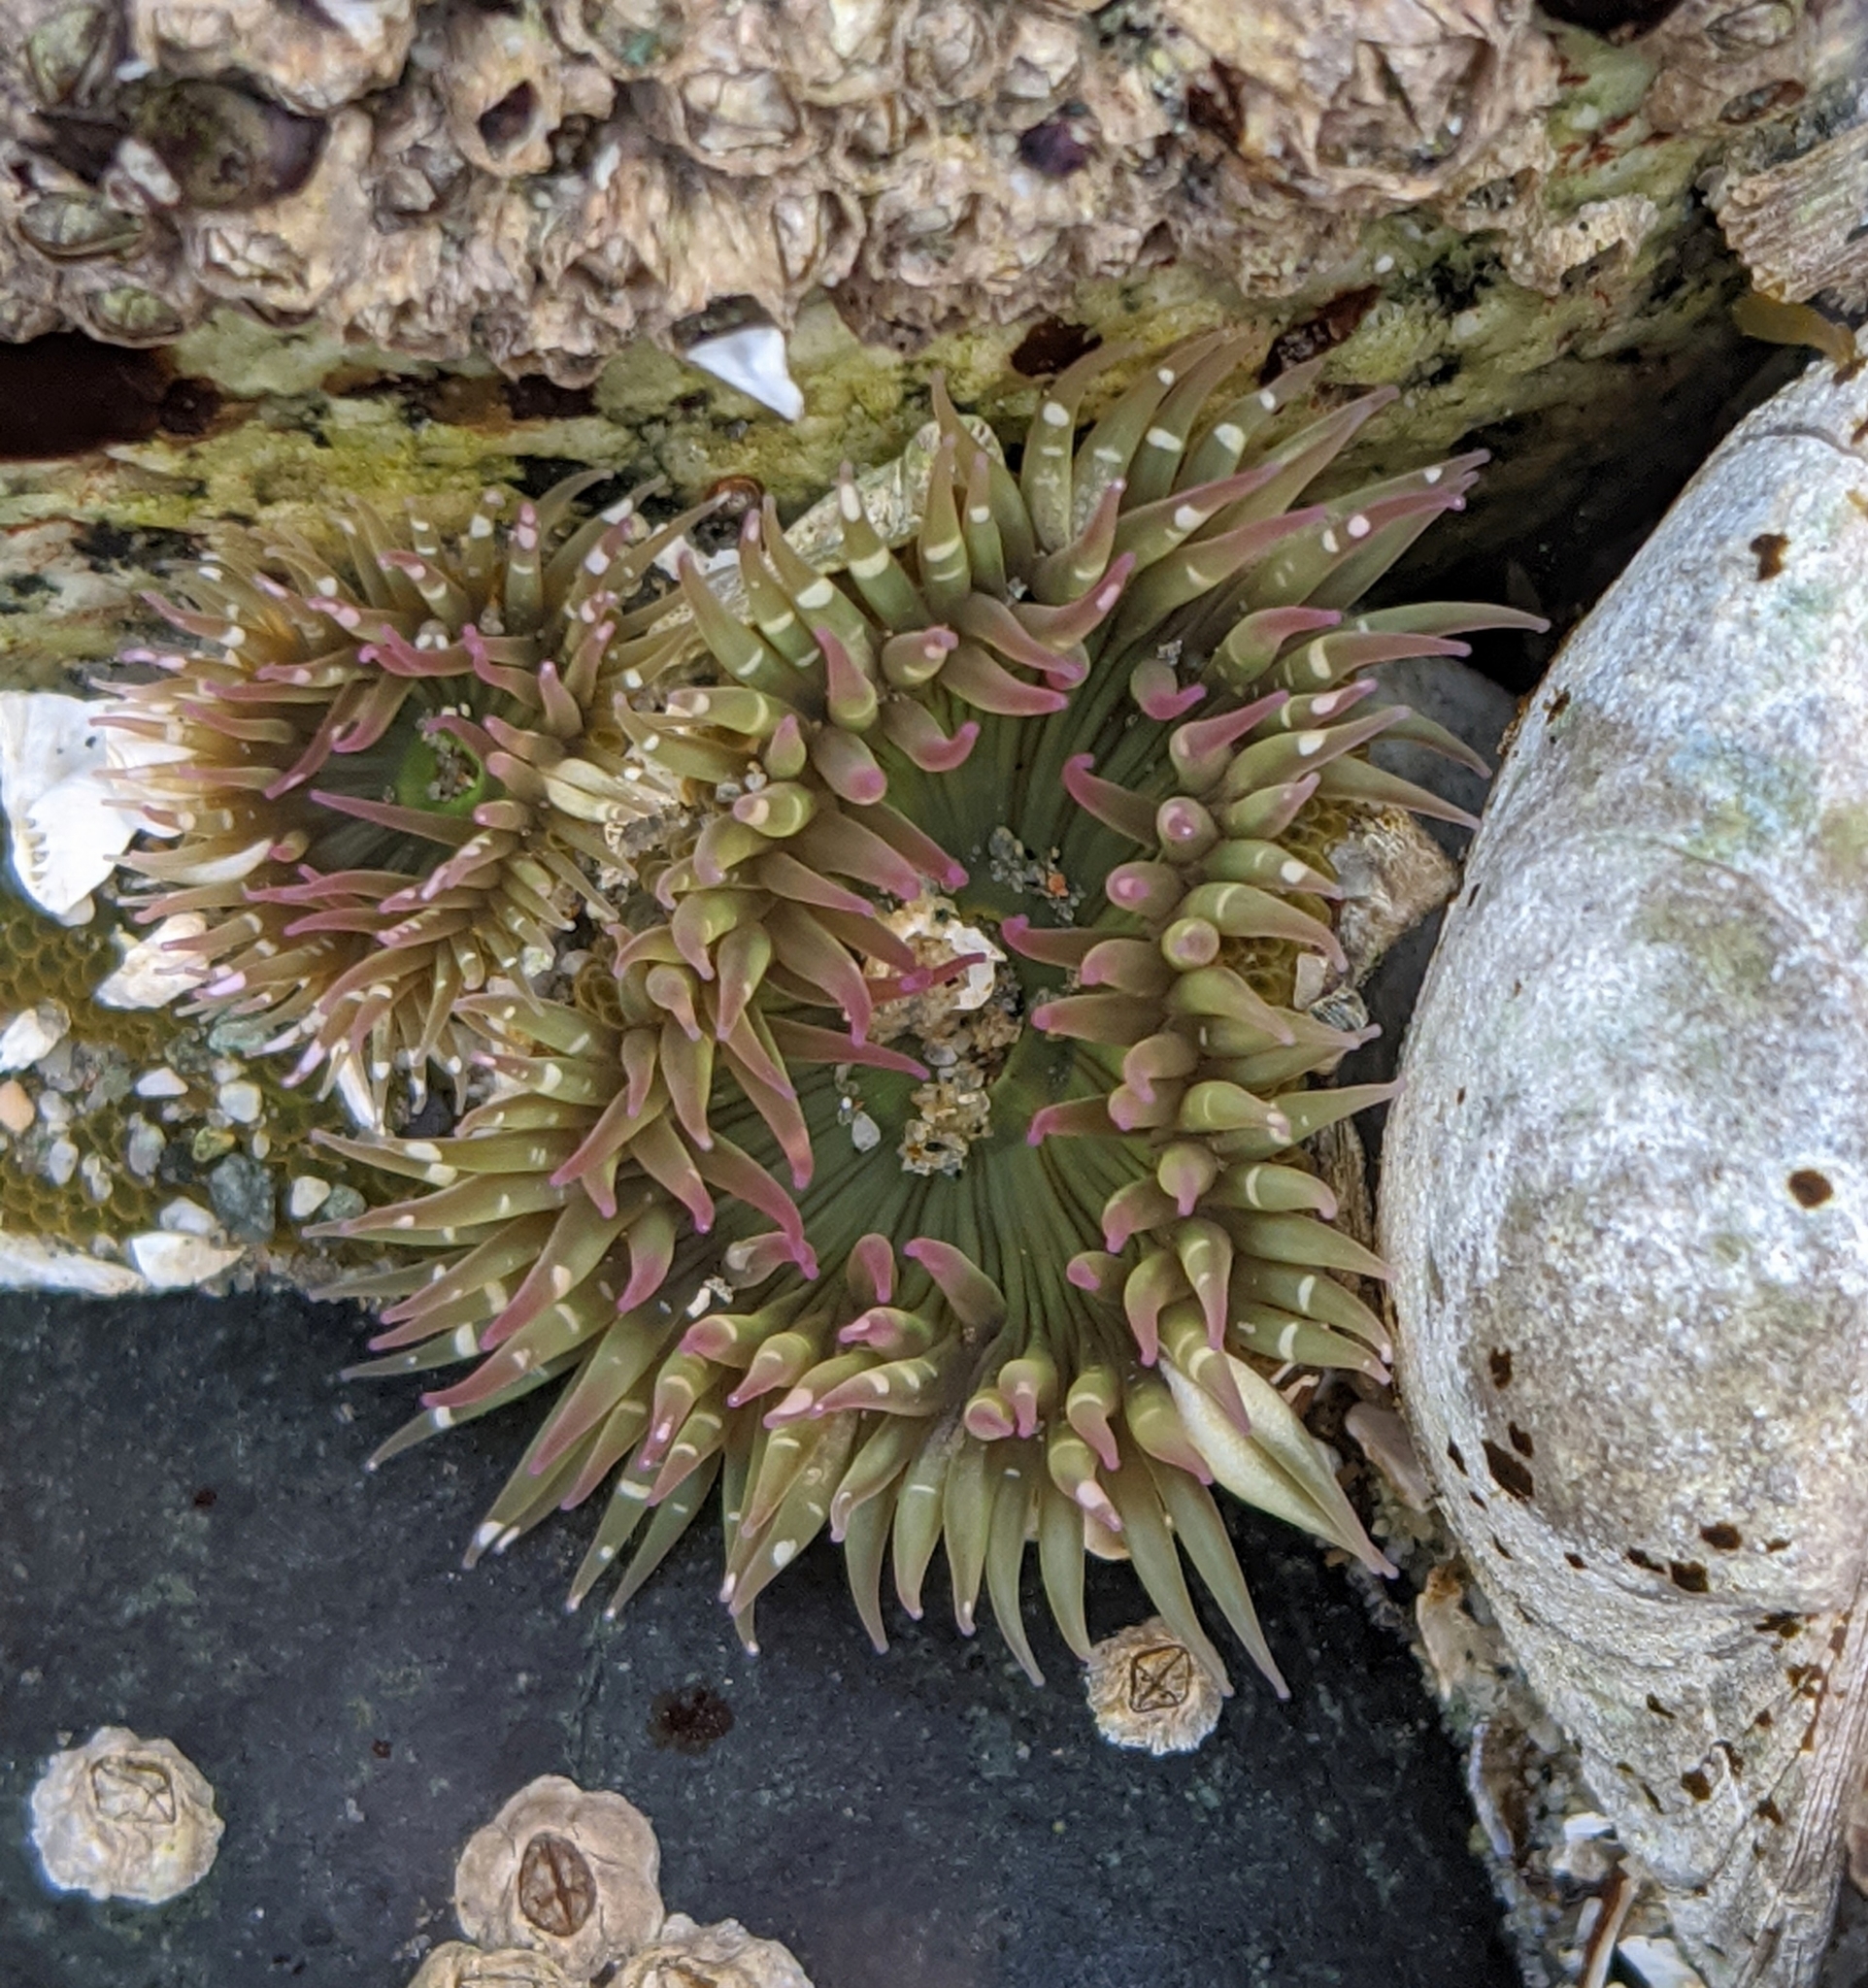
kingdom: Animalia
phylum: Cnidaria
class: Anthozoa
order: Actiniaria
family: Actiniidae
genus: Anthopleura
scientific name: Anthopleura elegantissima
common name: Clonal anemone
